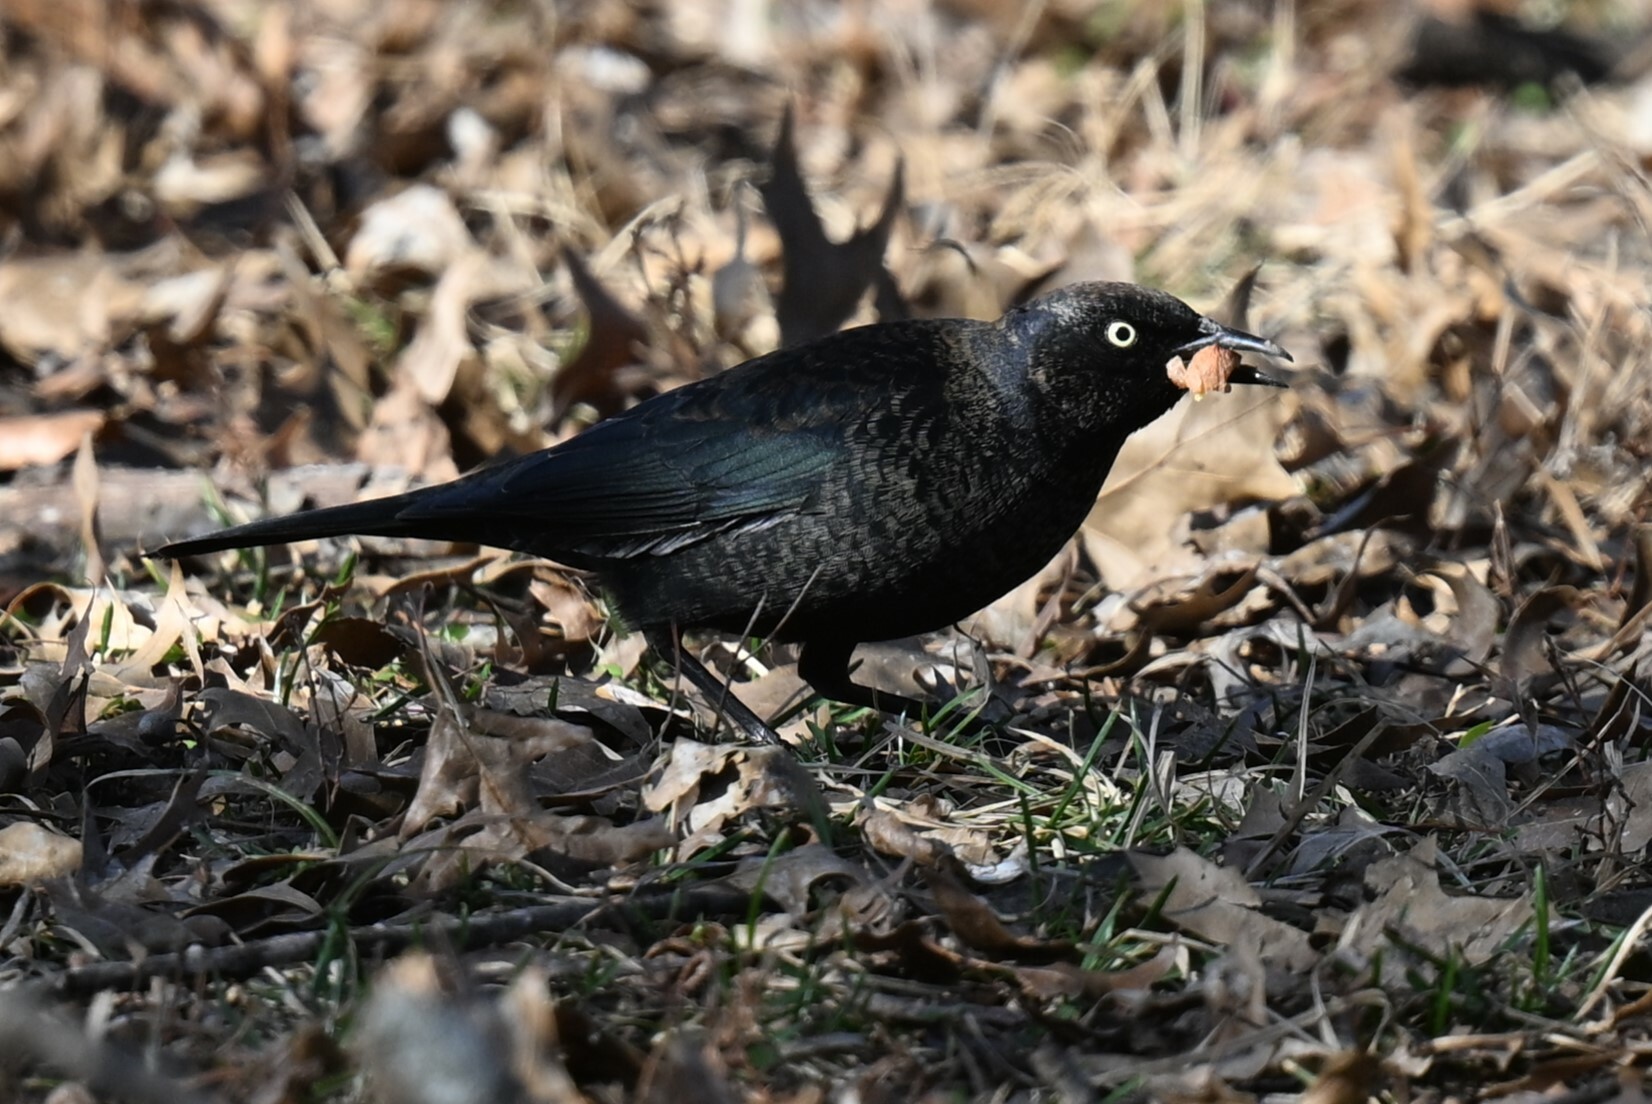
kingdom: Animalia
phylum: Chordata
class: Aves
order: Passeriformes
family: Icteridae
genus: Euphagus
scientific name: Euphagus carolinus
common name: Rusty blackbird
